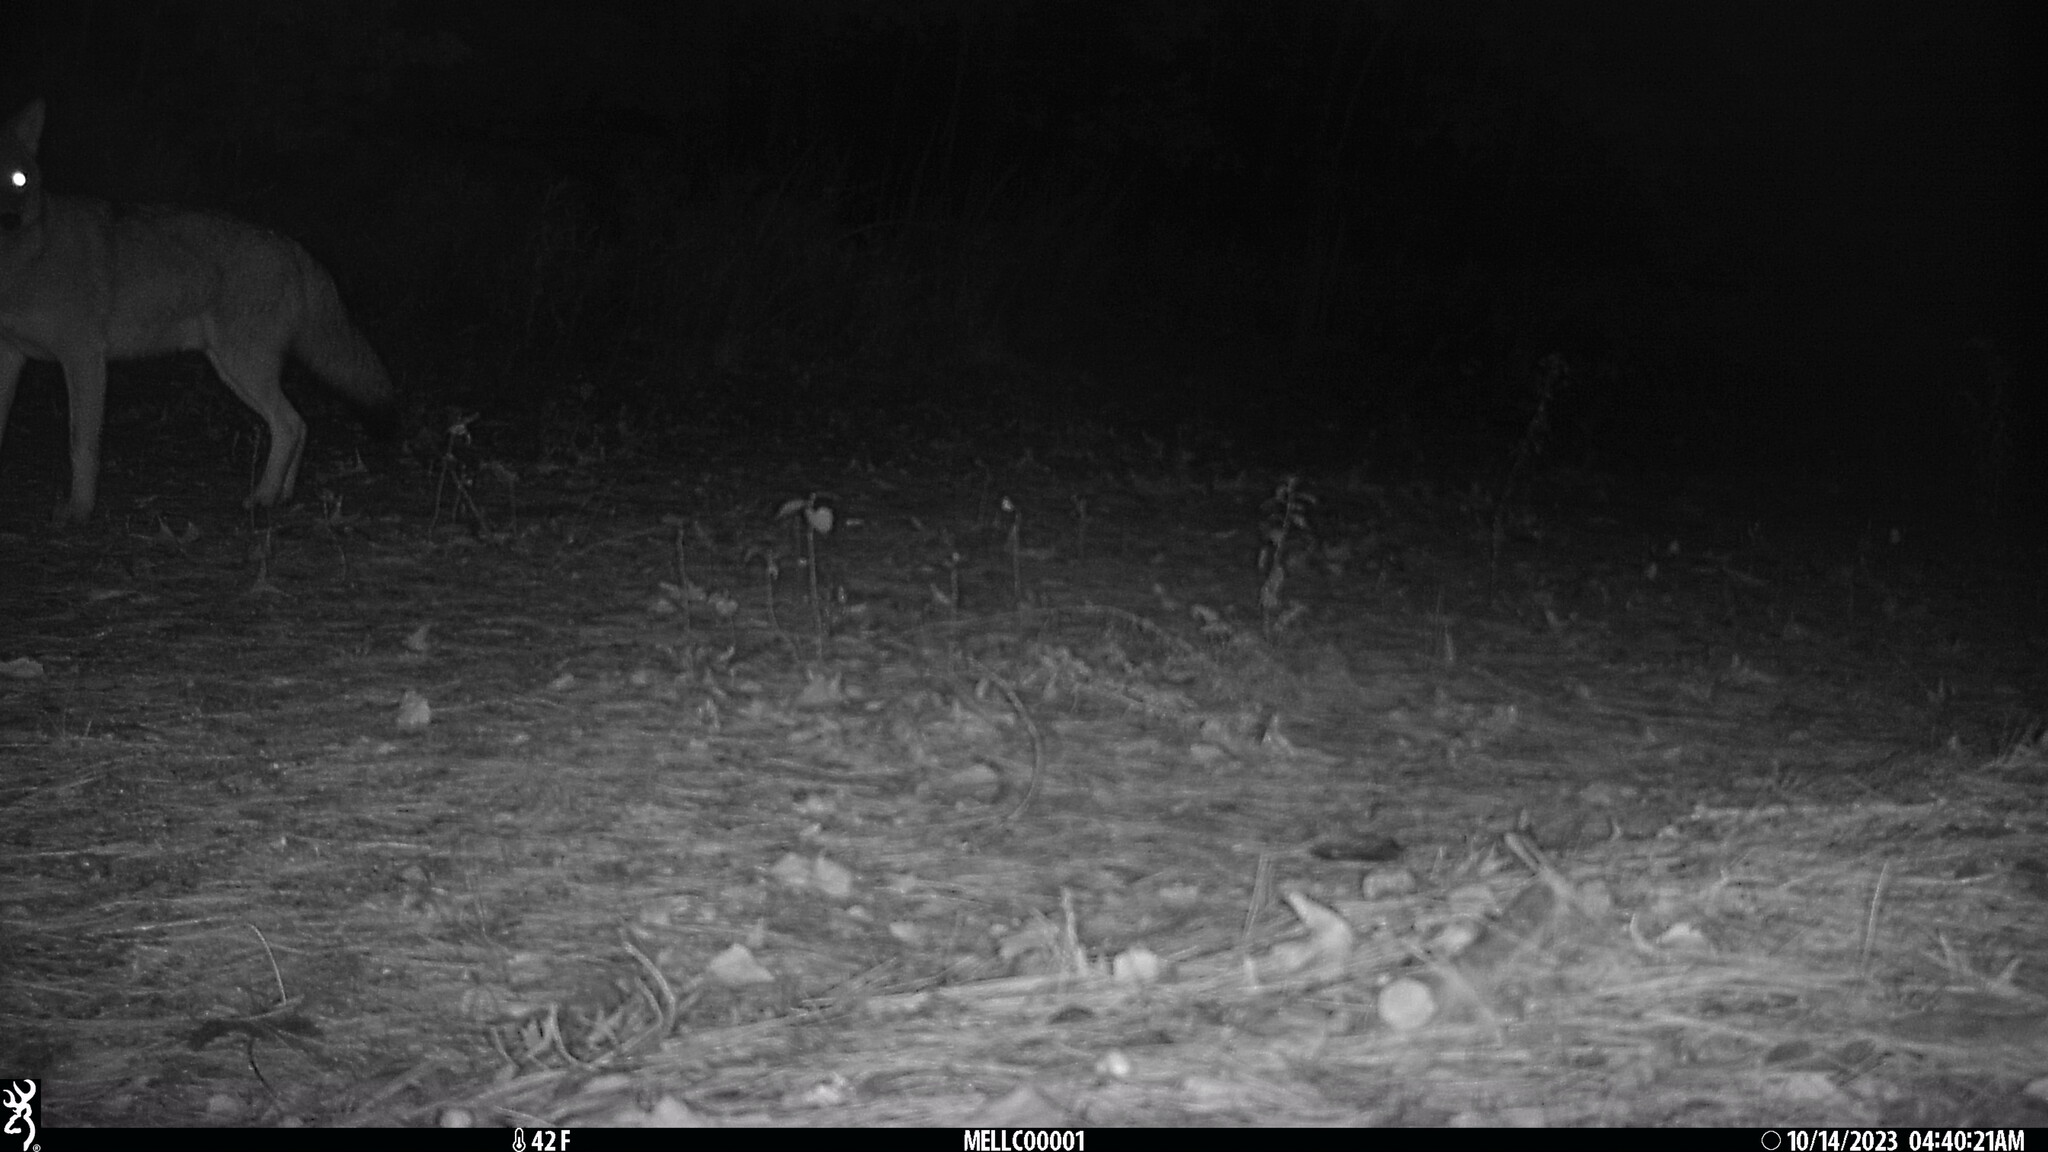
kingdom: Animalia
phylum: Chordata
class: Mammalia
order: Carnivora
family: Canidae
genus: Canis
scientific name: Canis latrans
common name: Coyote
